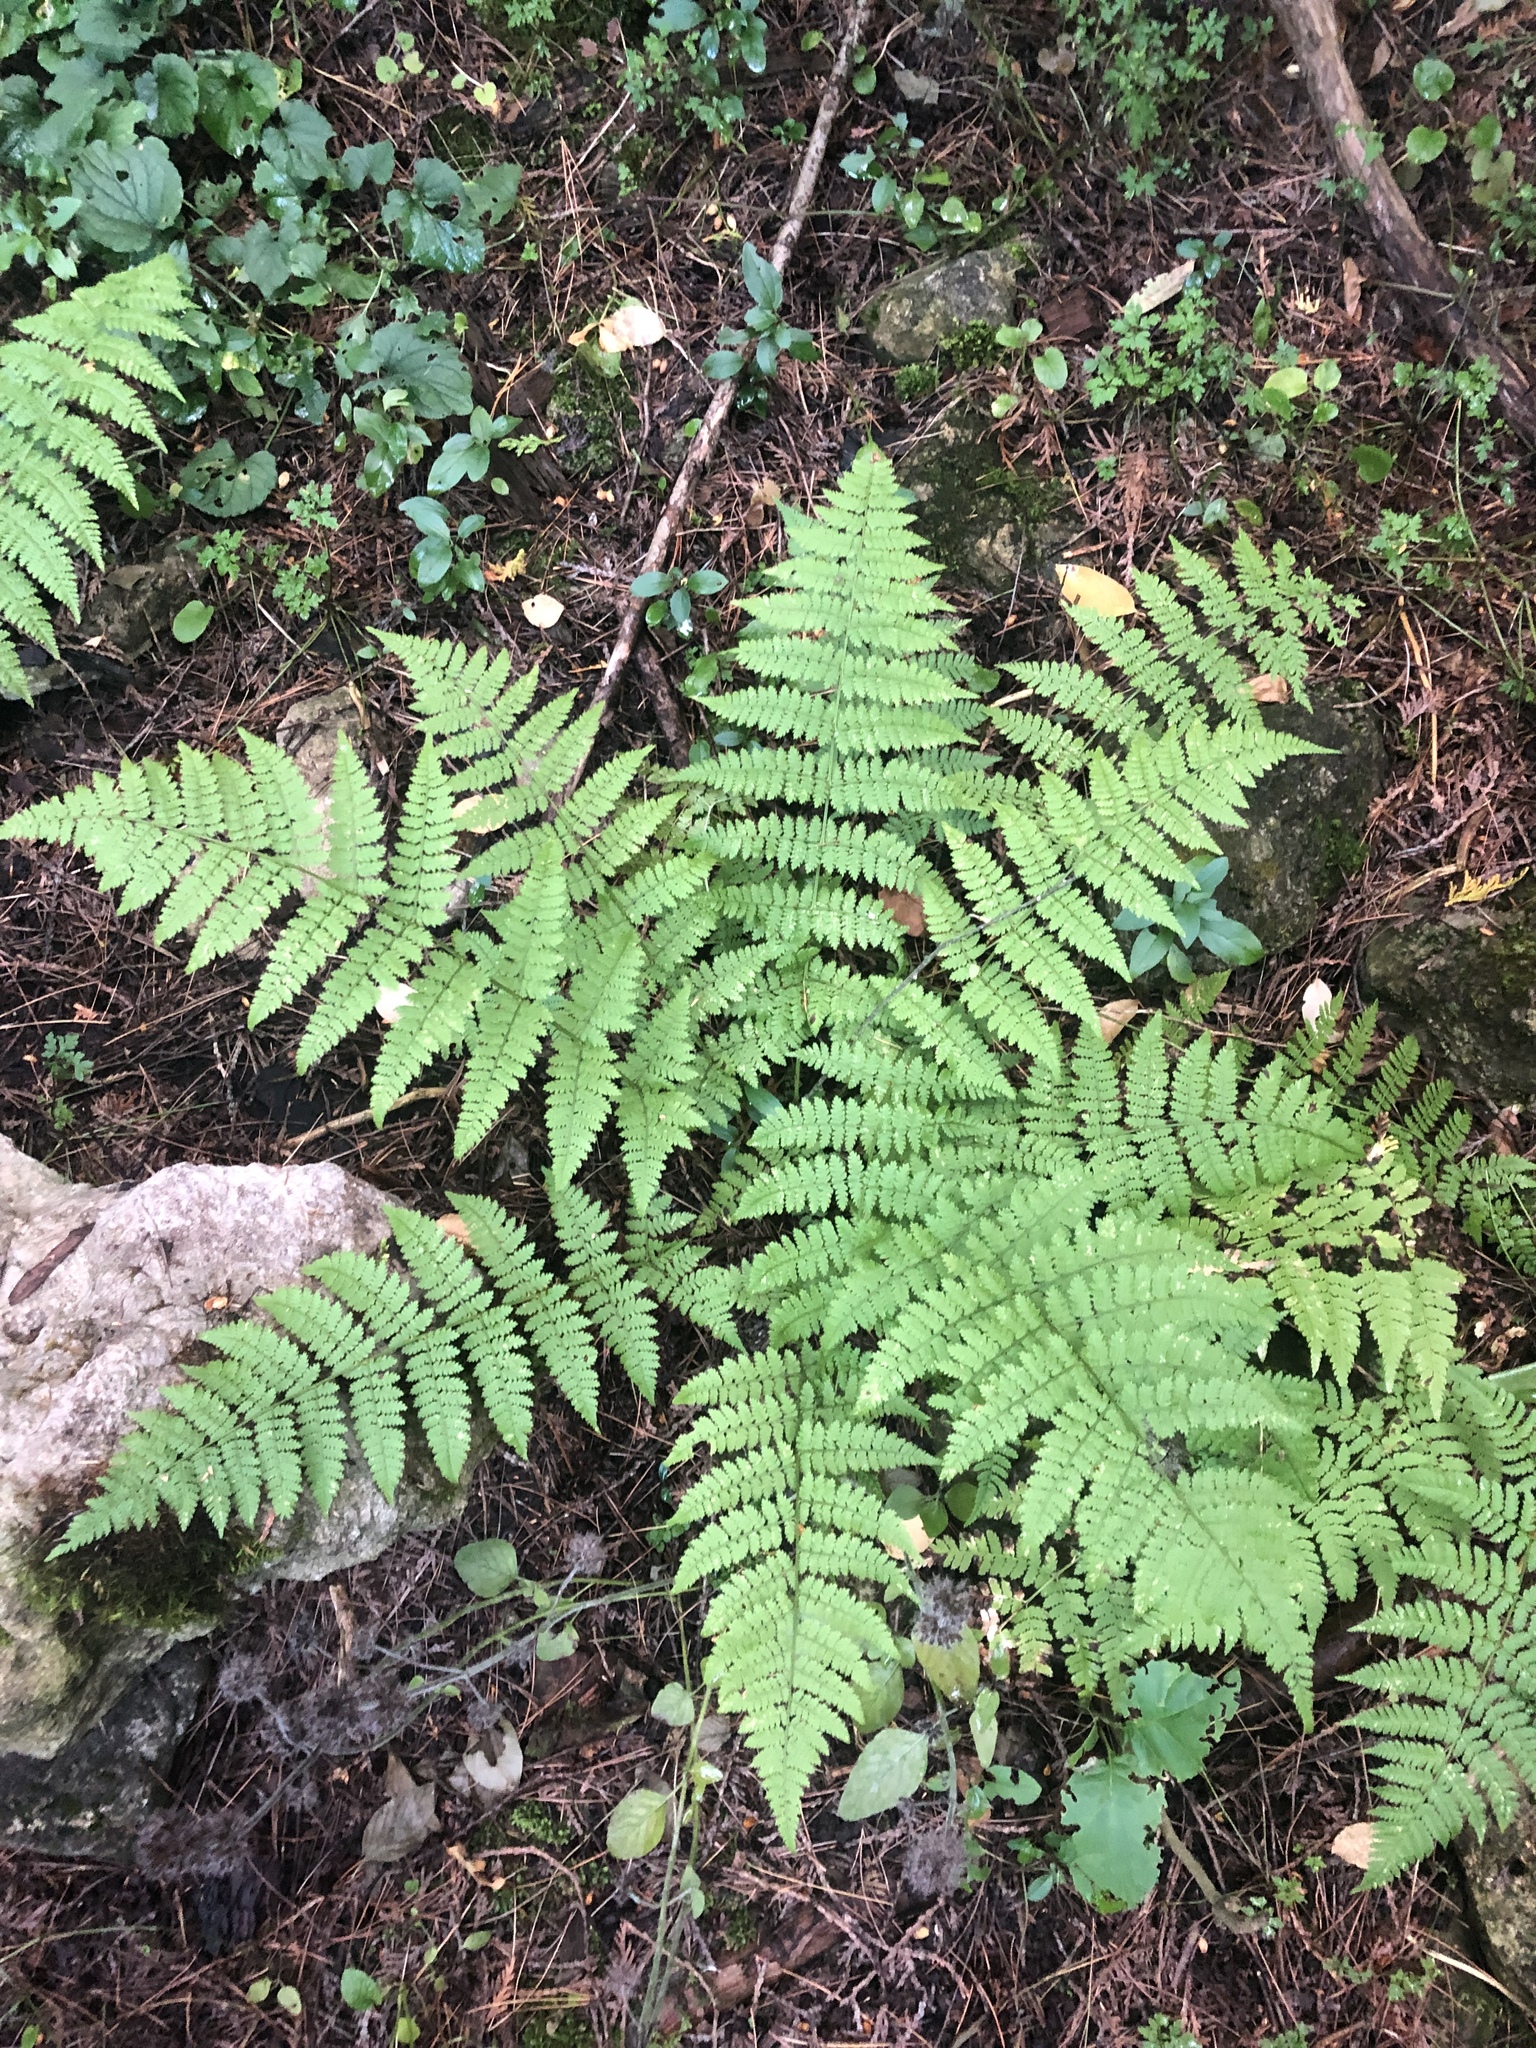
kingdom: Plantae
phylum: Tracheophyta
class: Polypodiopsida
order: Polypodiales
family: Dryopteridaceae
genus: Dryopteris
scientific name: Dryopteris intermedia
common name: Evergreen wood fern
